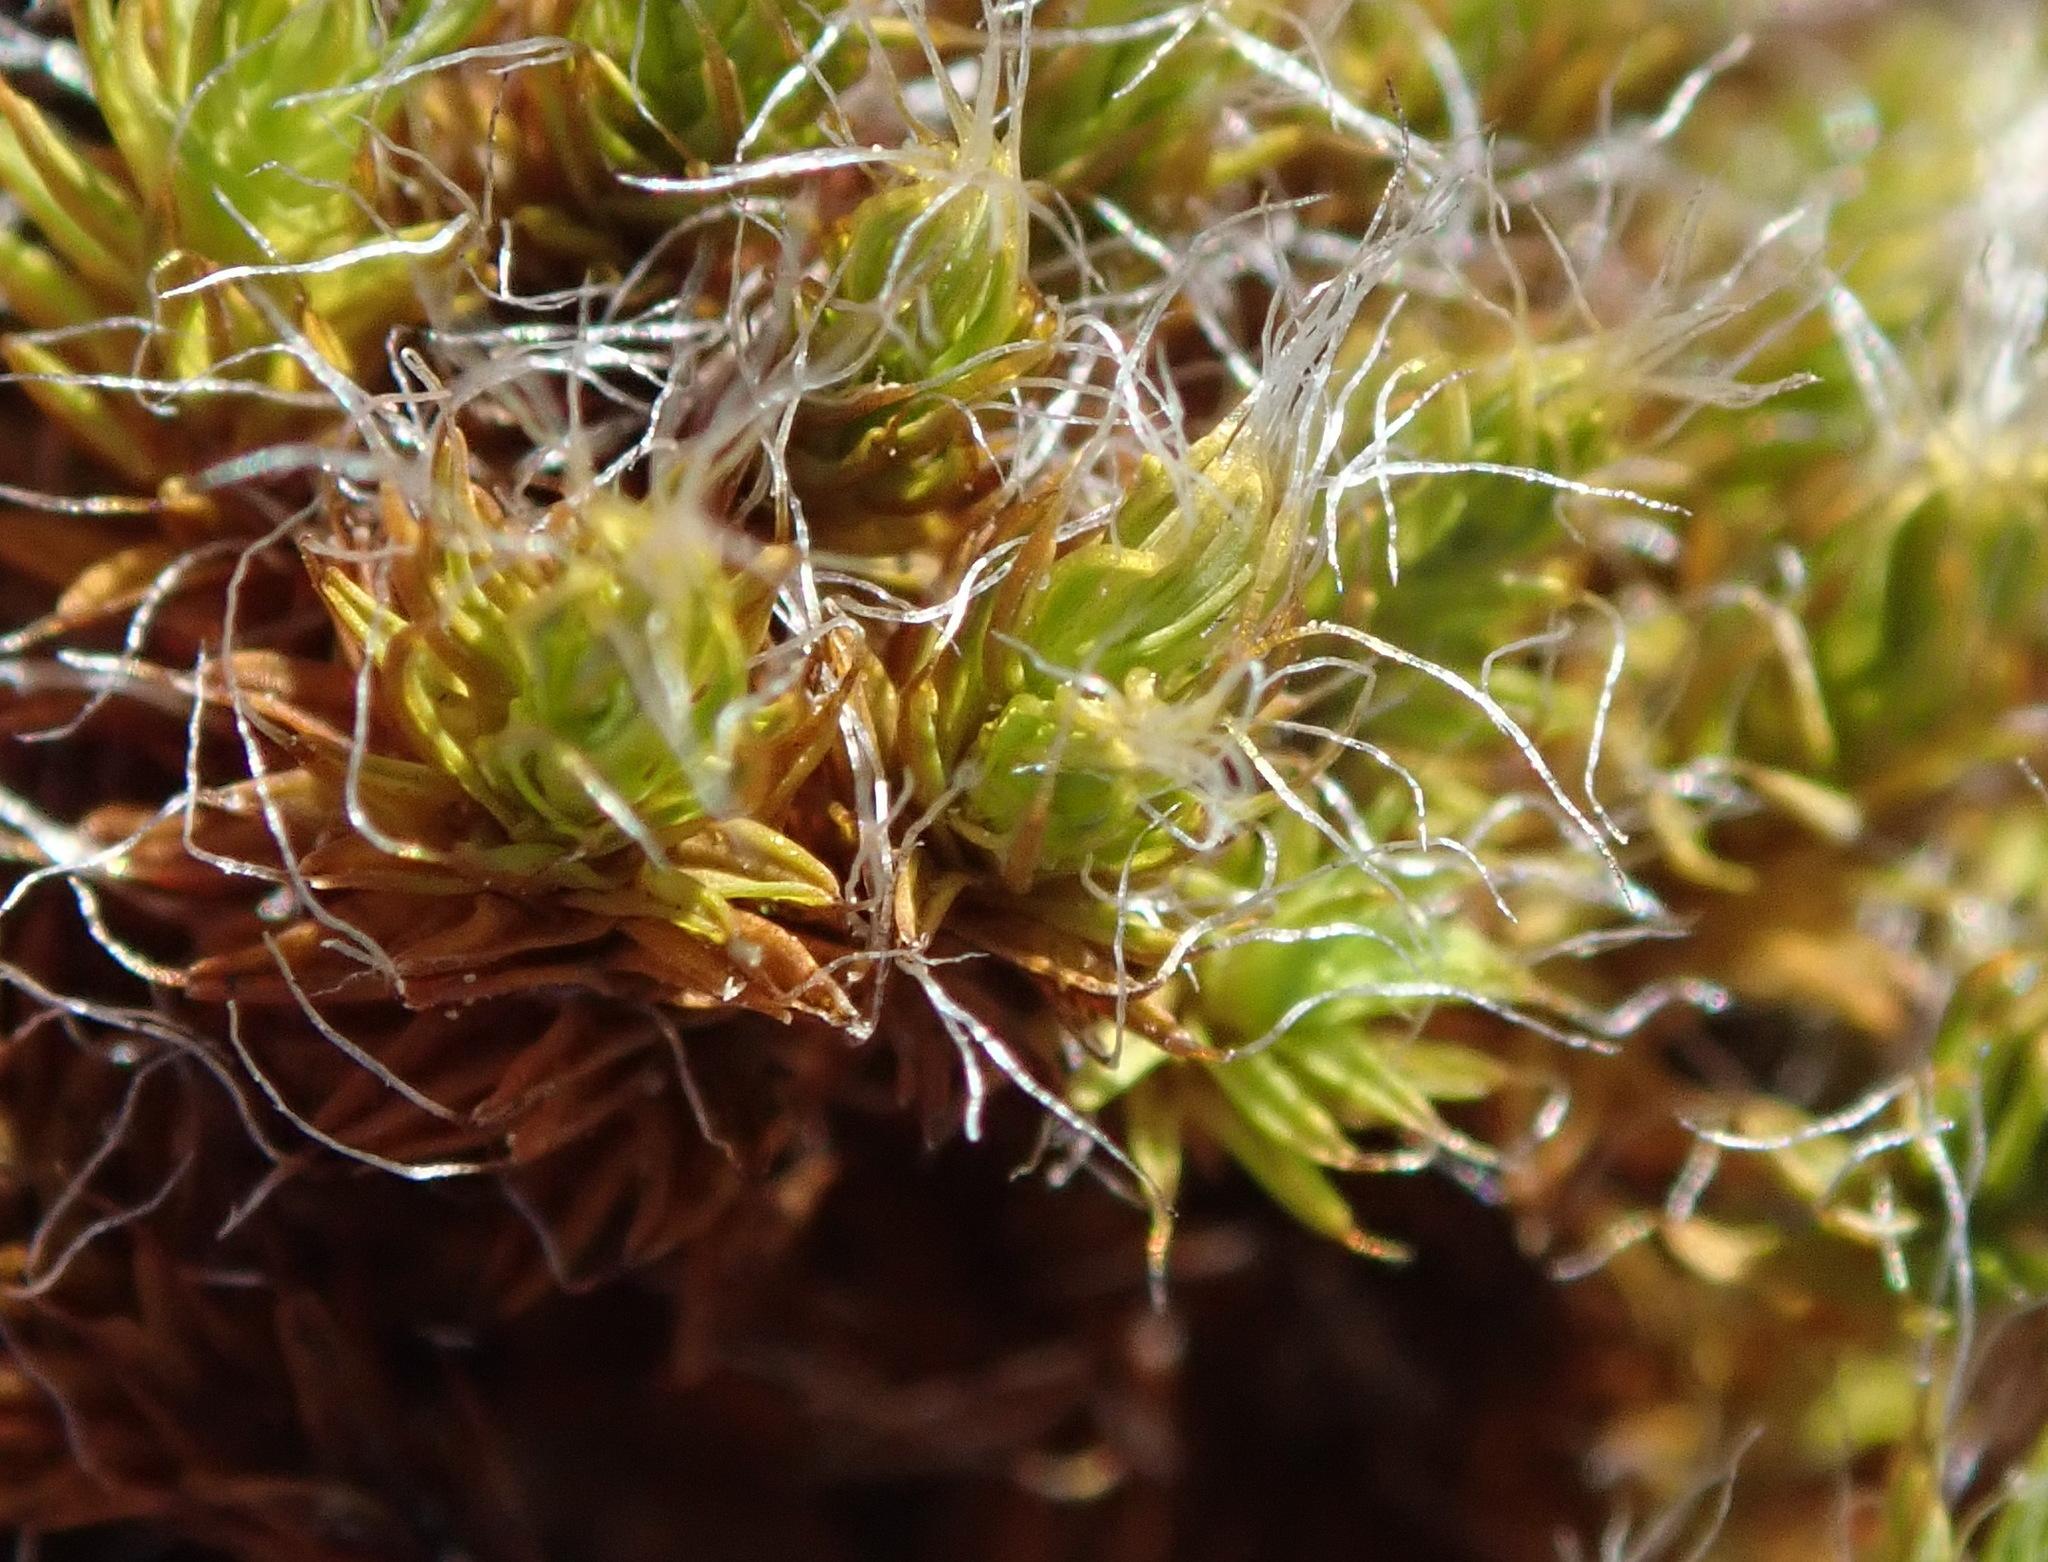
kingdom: Plantae
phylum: Bryophyta
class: Bryopsida
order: Pottiales
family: Pottiaceae
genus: Pseudocrossidium
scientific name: Pseudocrossidium crinitum
